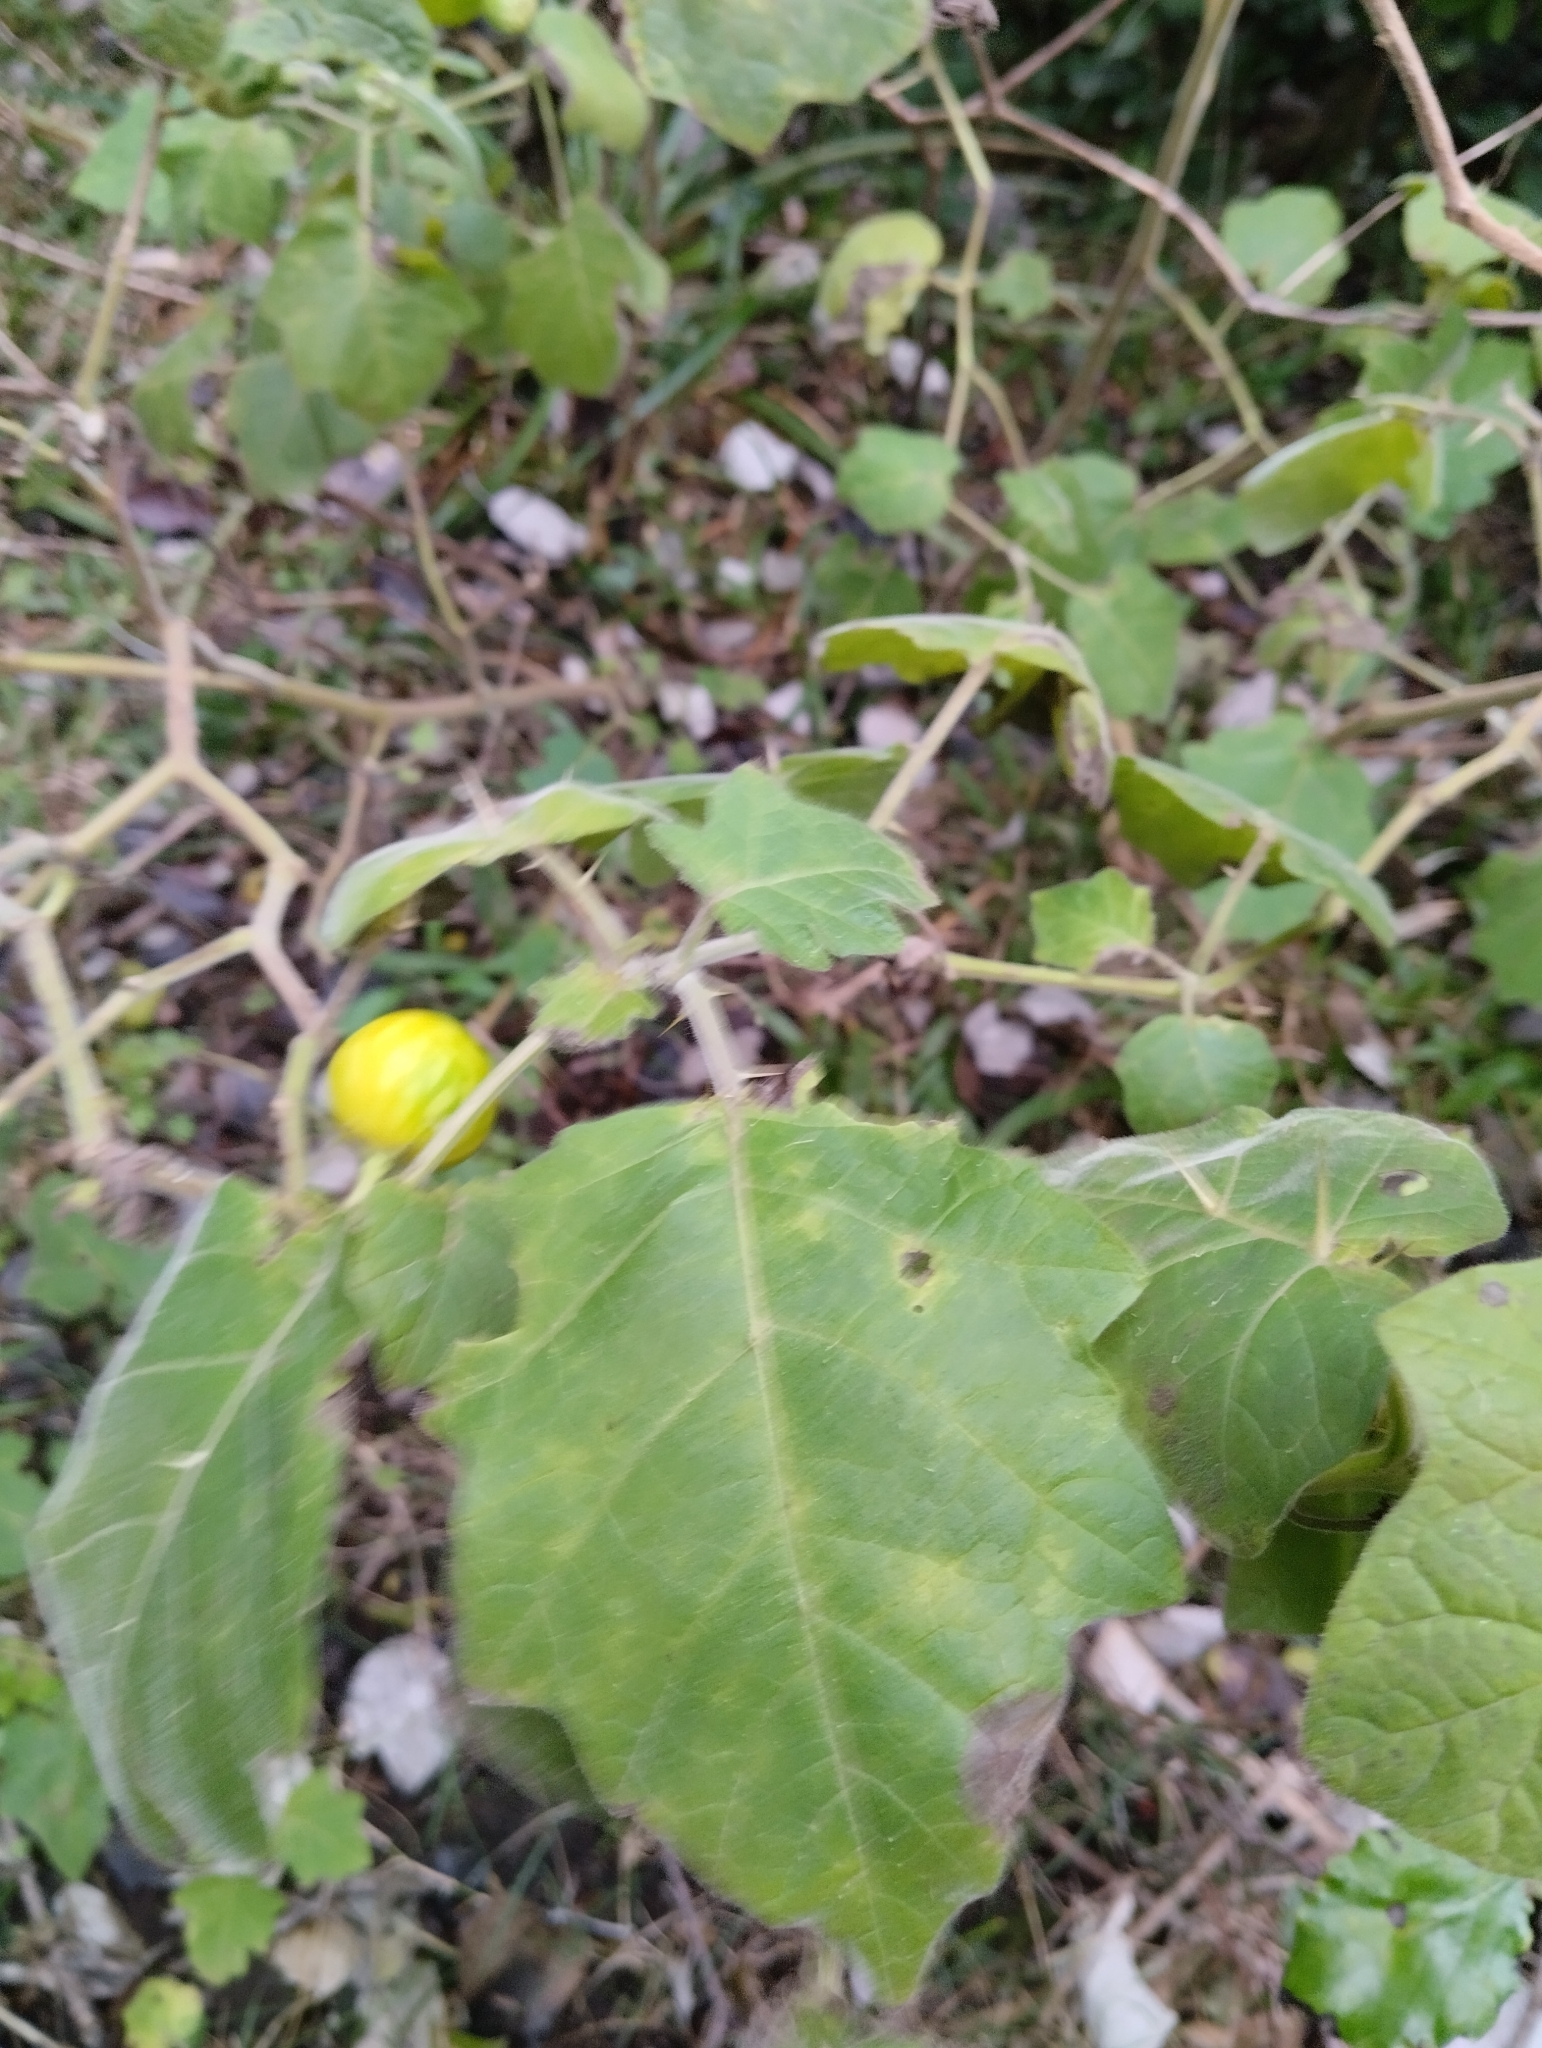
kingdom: Plantae
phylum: Tracheophyta
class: Magnoliopsida
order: Solanales
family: Solanaceae
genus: Solanum
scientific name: Solanum viarum
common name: Tropical soda apple
